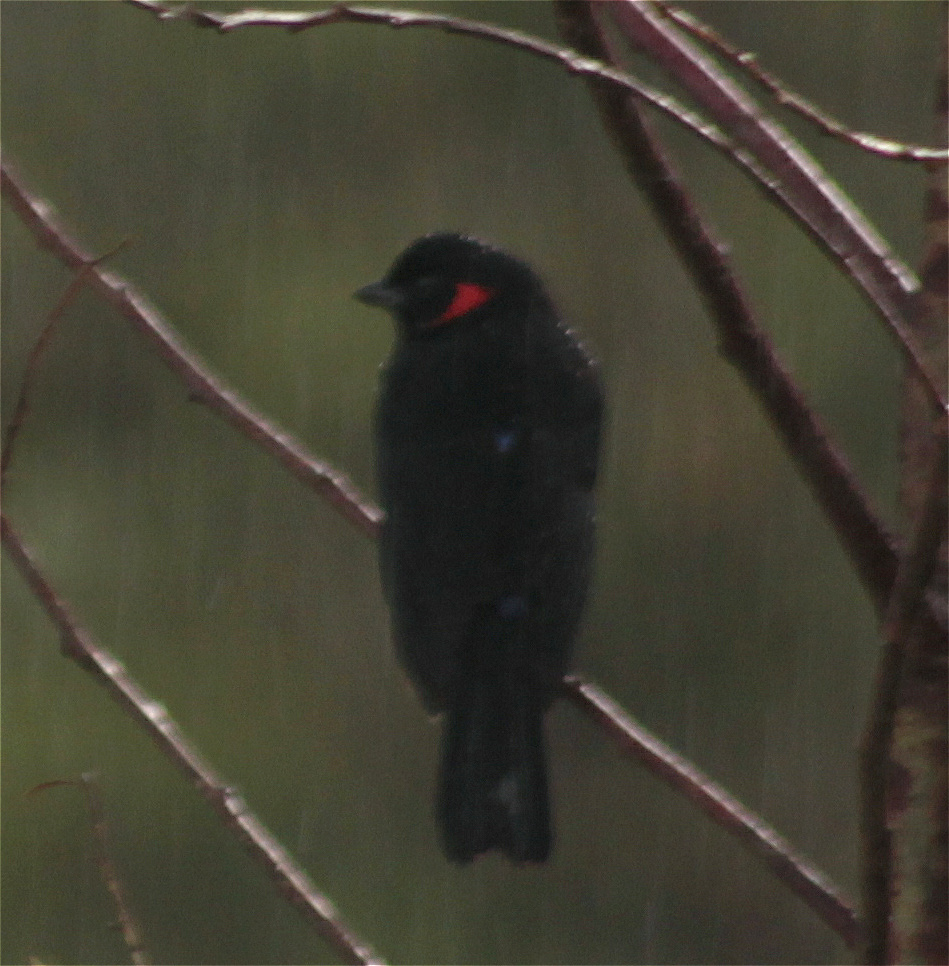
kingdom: Animalia
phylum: Chordata
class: Aves
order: Passeriformes
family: Thraupidae
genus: Anisognathus
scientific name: Anisognathus igniventris
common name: Scarlet-bellied mountain tanager
